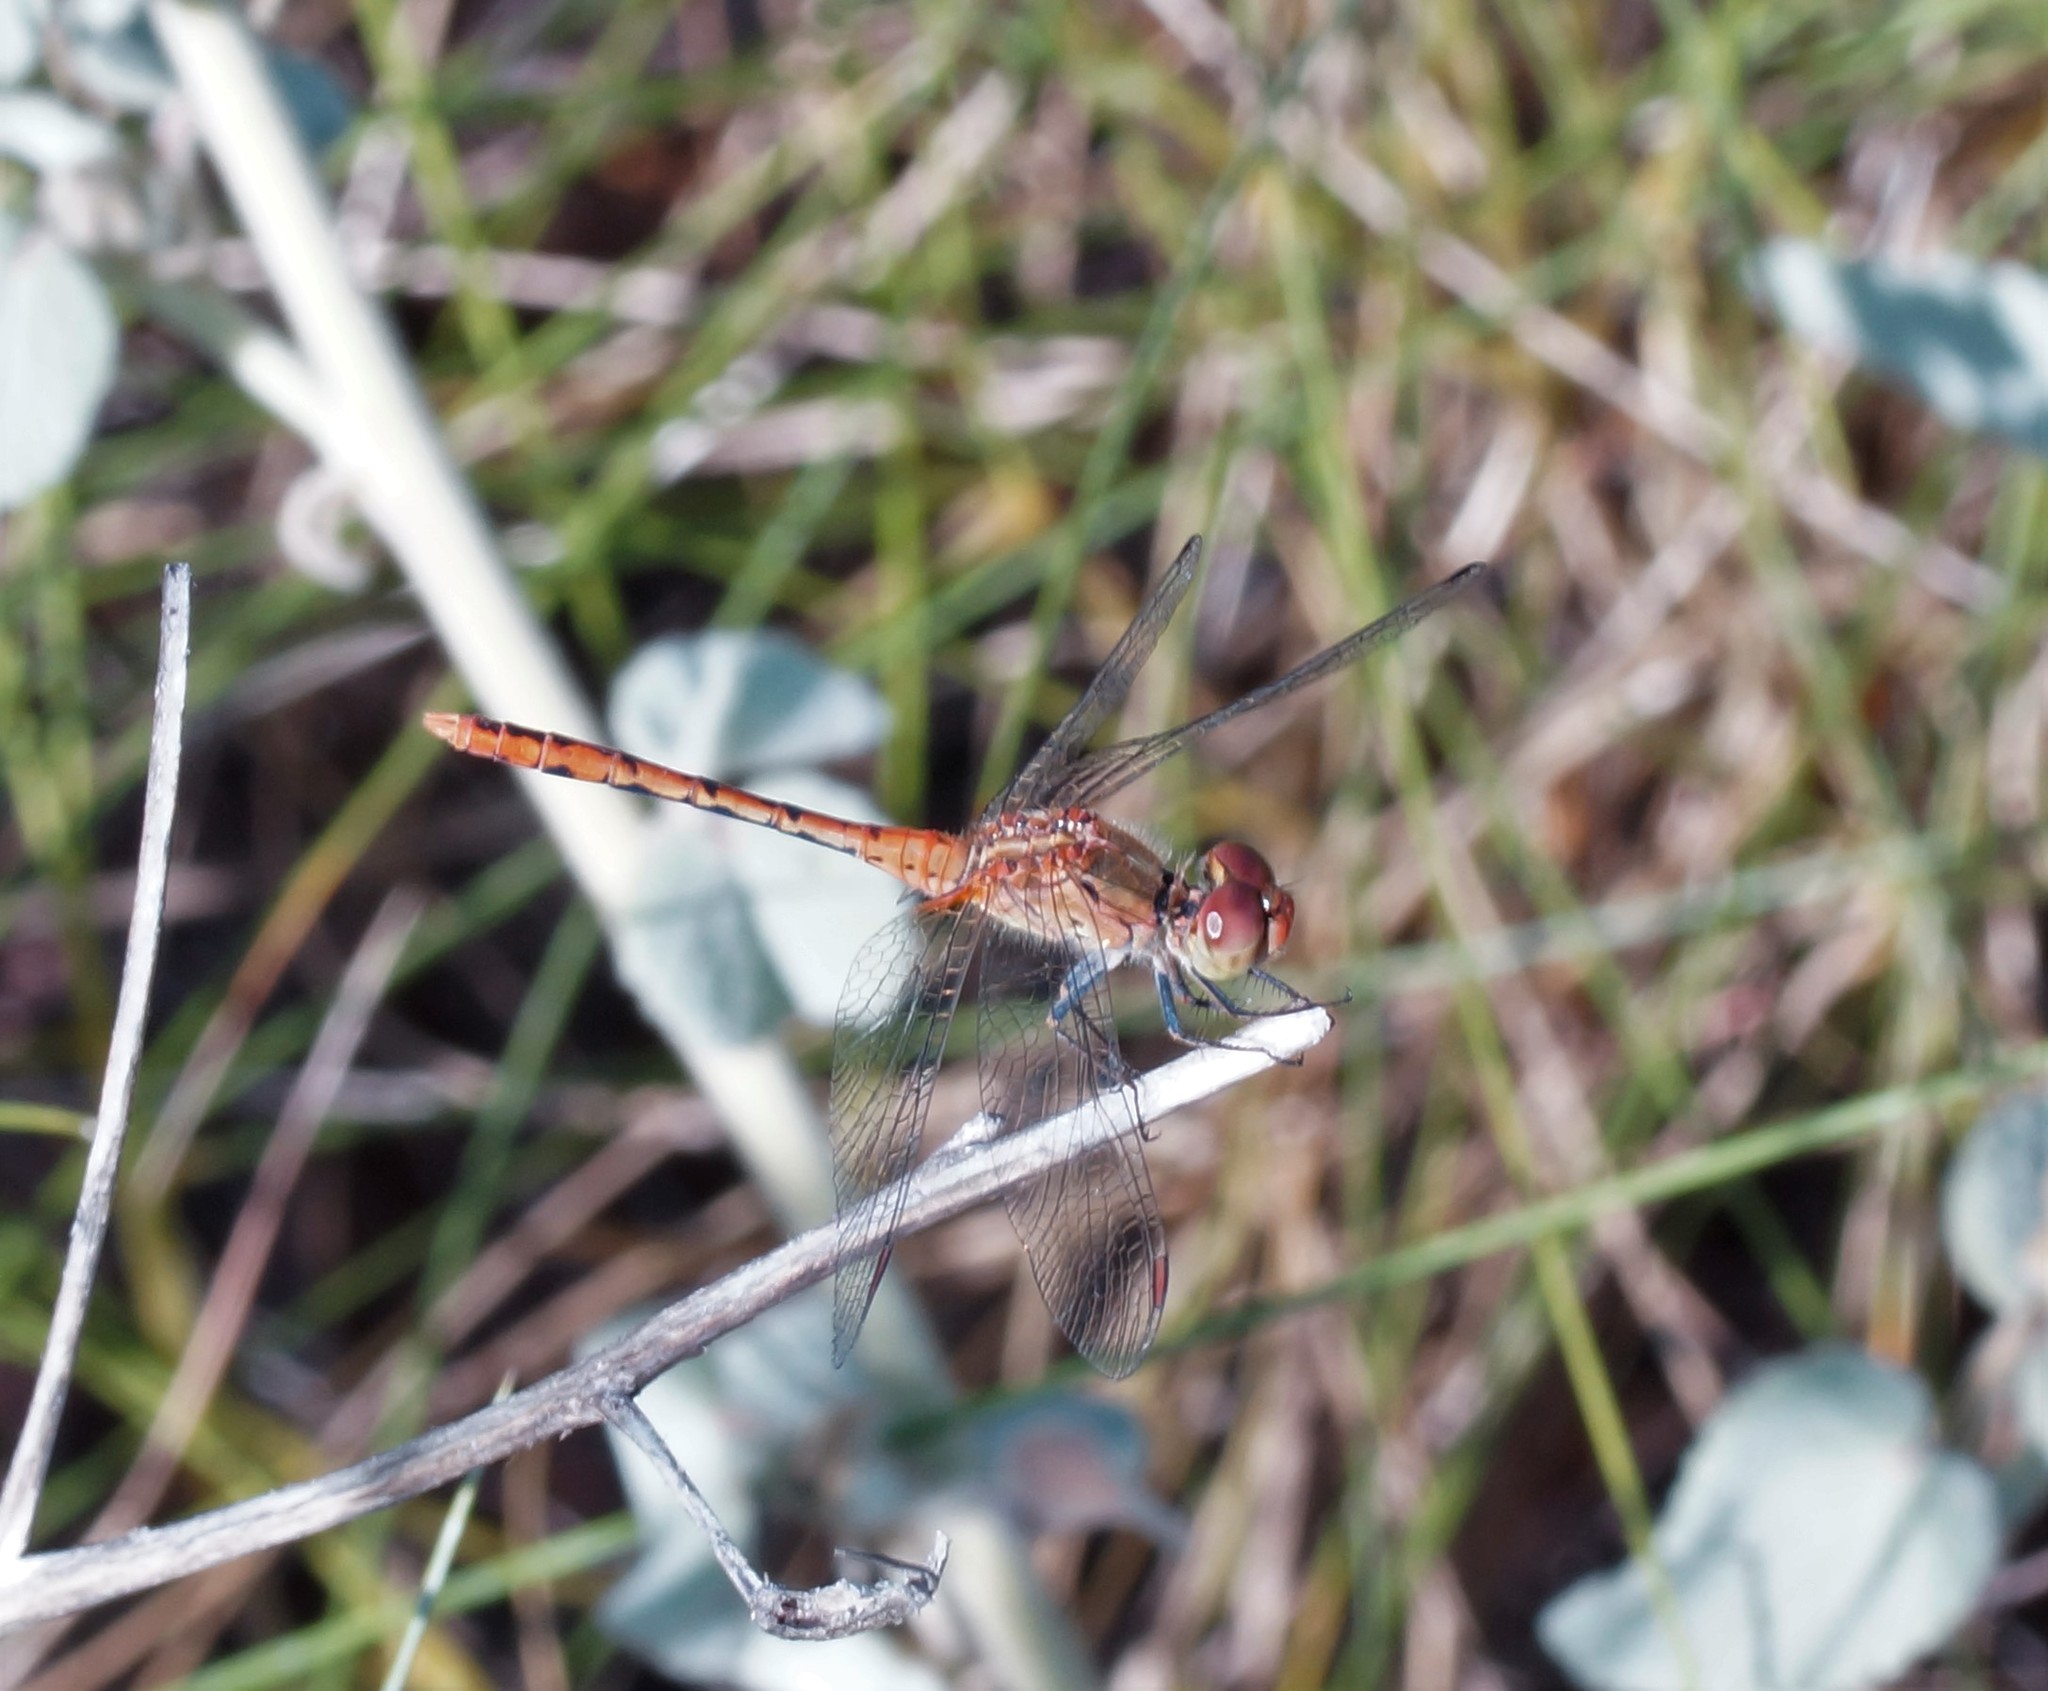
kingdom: Animalia
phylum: Arthropoda
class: Insecta
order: Odonata
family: Libellulidae
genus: Diplacodes
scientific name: Diplacodes bipunctata
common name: Red percher dragonfly
